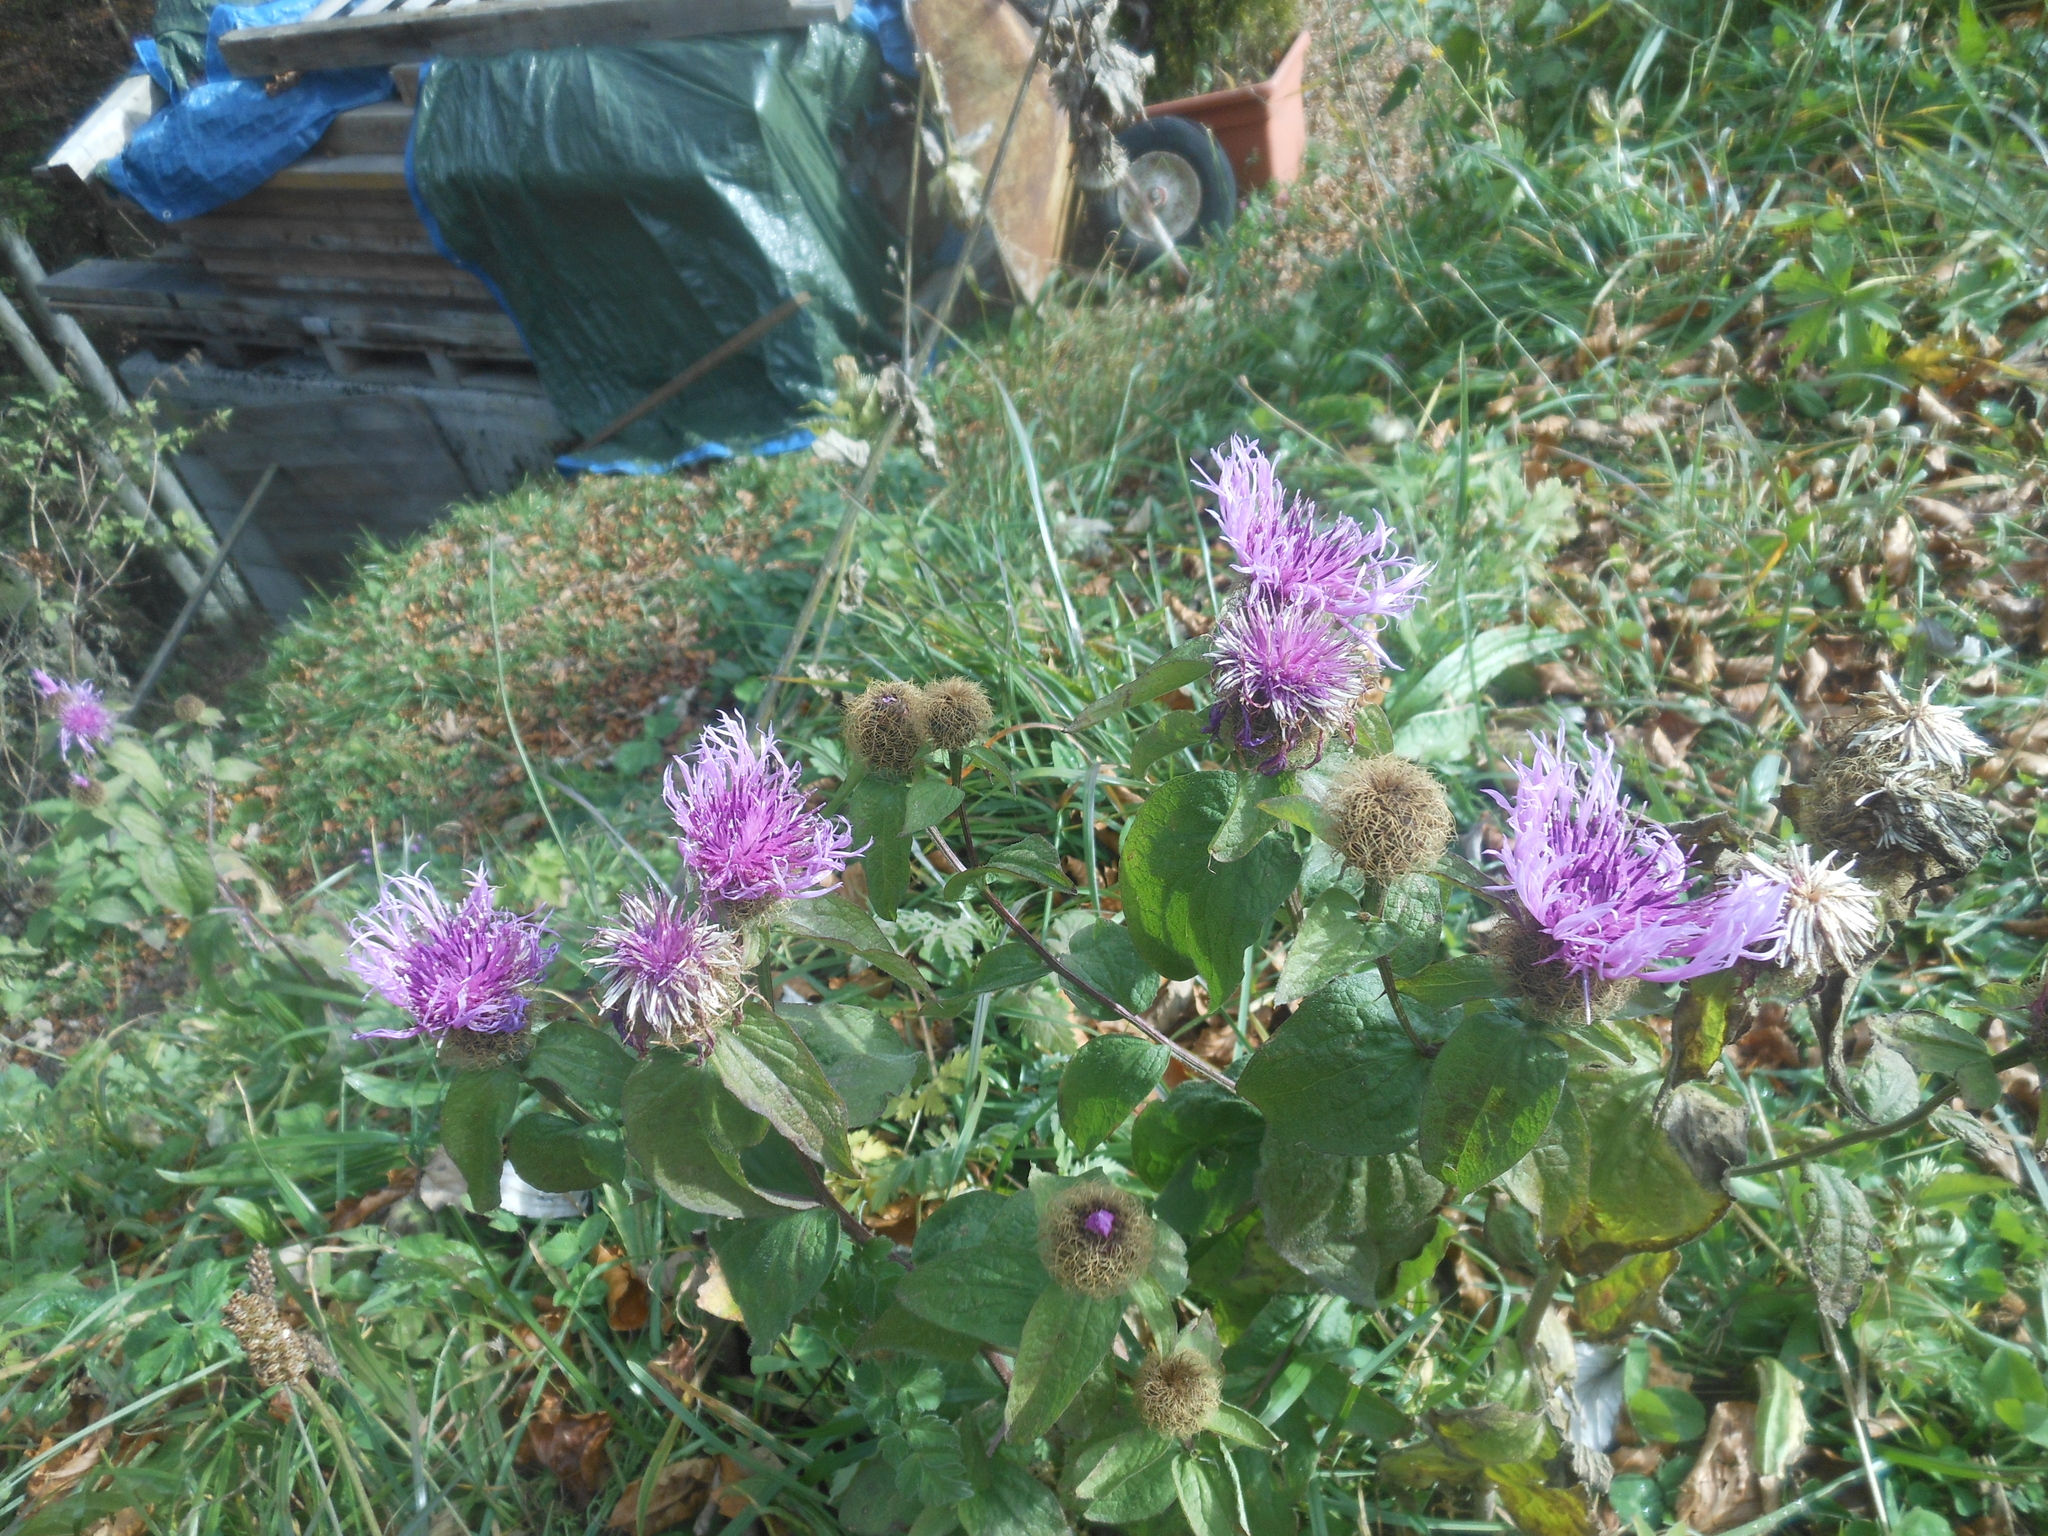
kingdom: Plantae
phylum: Tracheophyta
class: Magnoliopsida
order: Asterales
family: Asteraceae
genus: Centaurea
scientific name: Centaurea pseudophrygia
